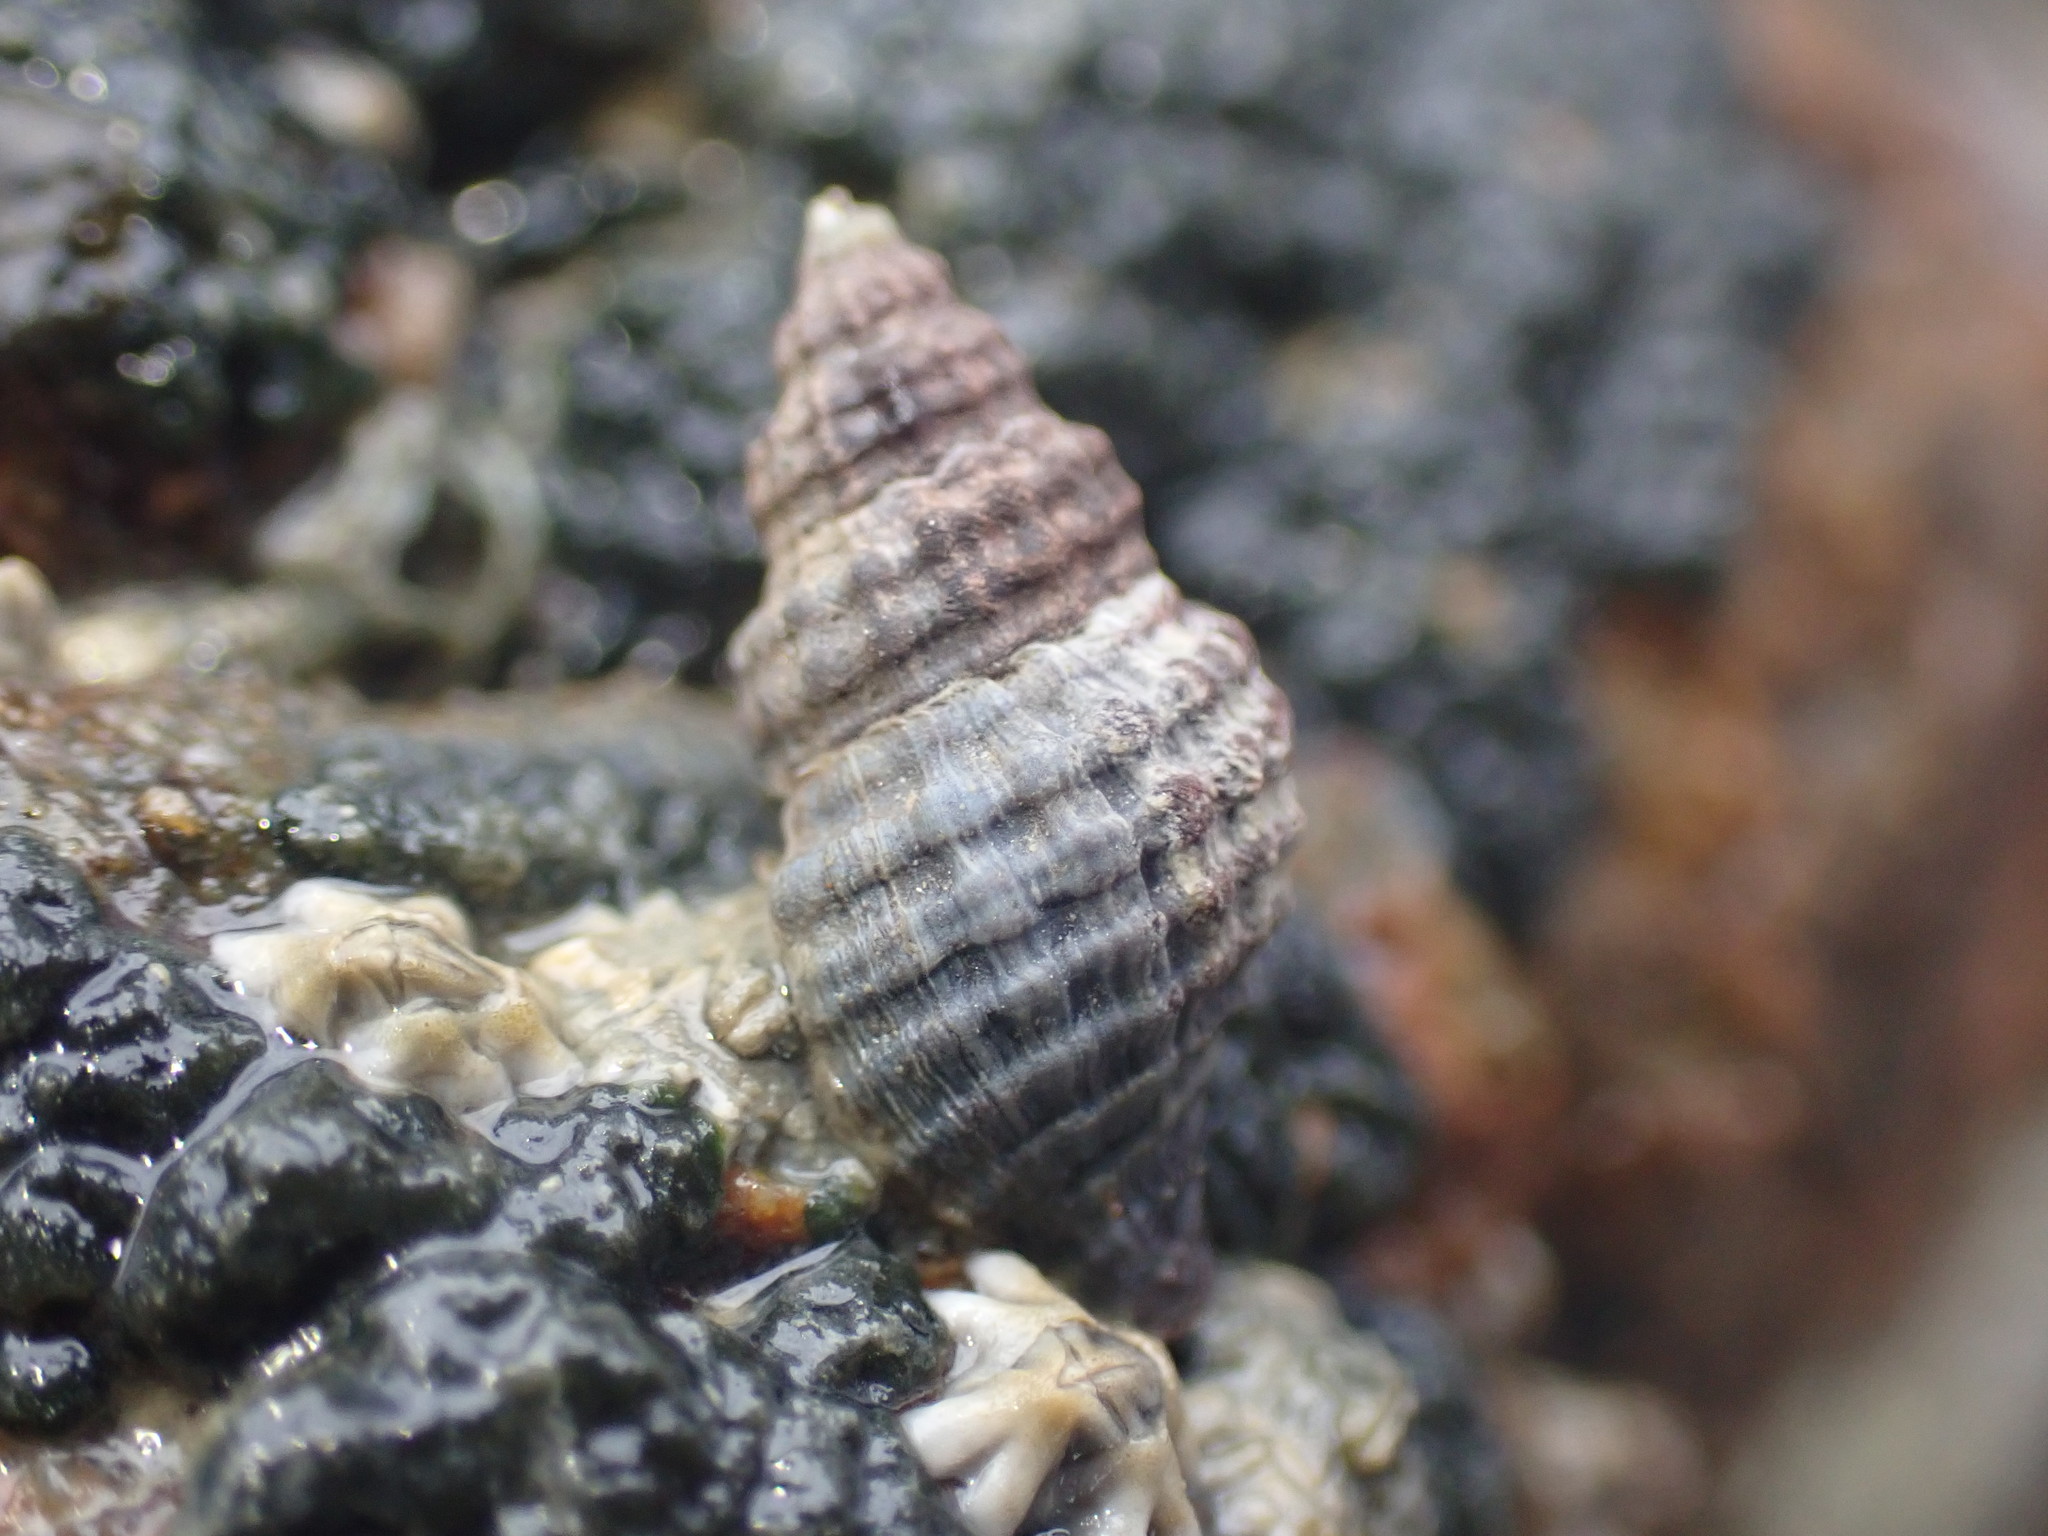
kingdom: Animalia
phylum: Mollusca
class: Gastropoda
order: Neogastropoda
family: Muricidae
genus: Xymene
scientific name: Xymene plebeius
